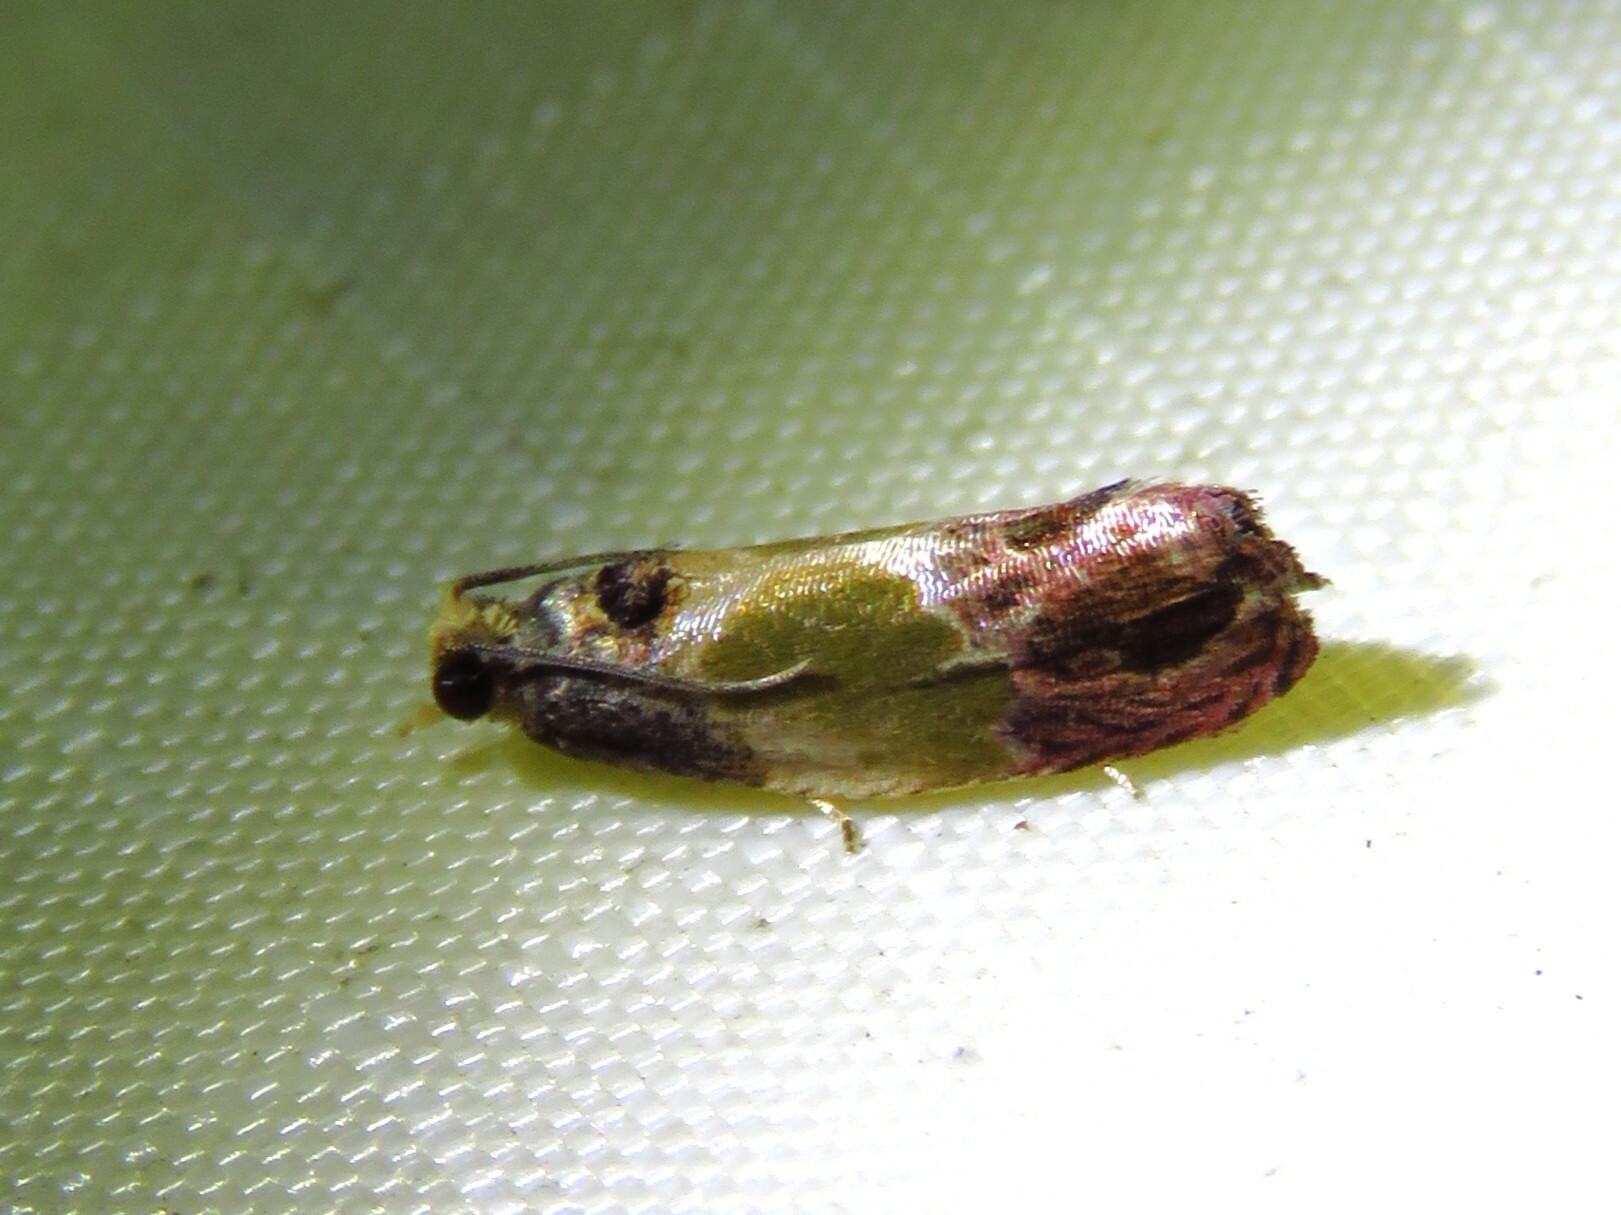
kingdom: Animalia
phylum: Arthropoda
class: Insecta
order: Lepidoptera
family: Tortricidae
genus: Eumarozia
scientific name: Eumarozia malachitana
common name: Sculptured moth
